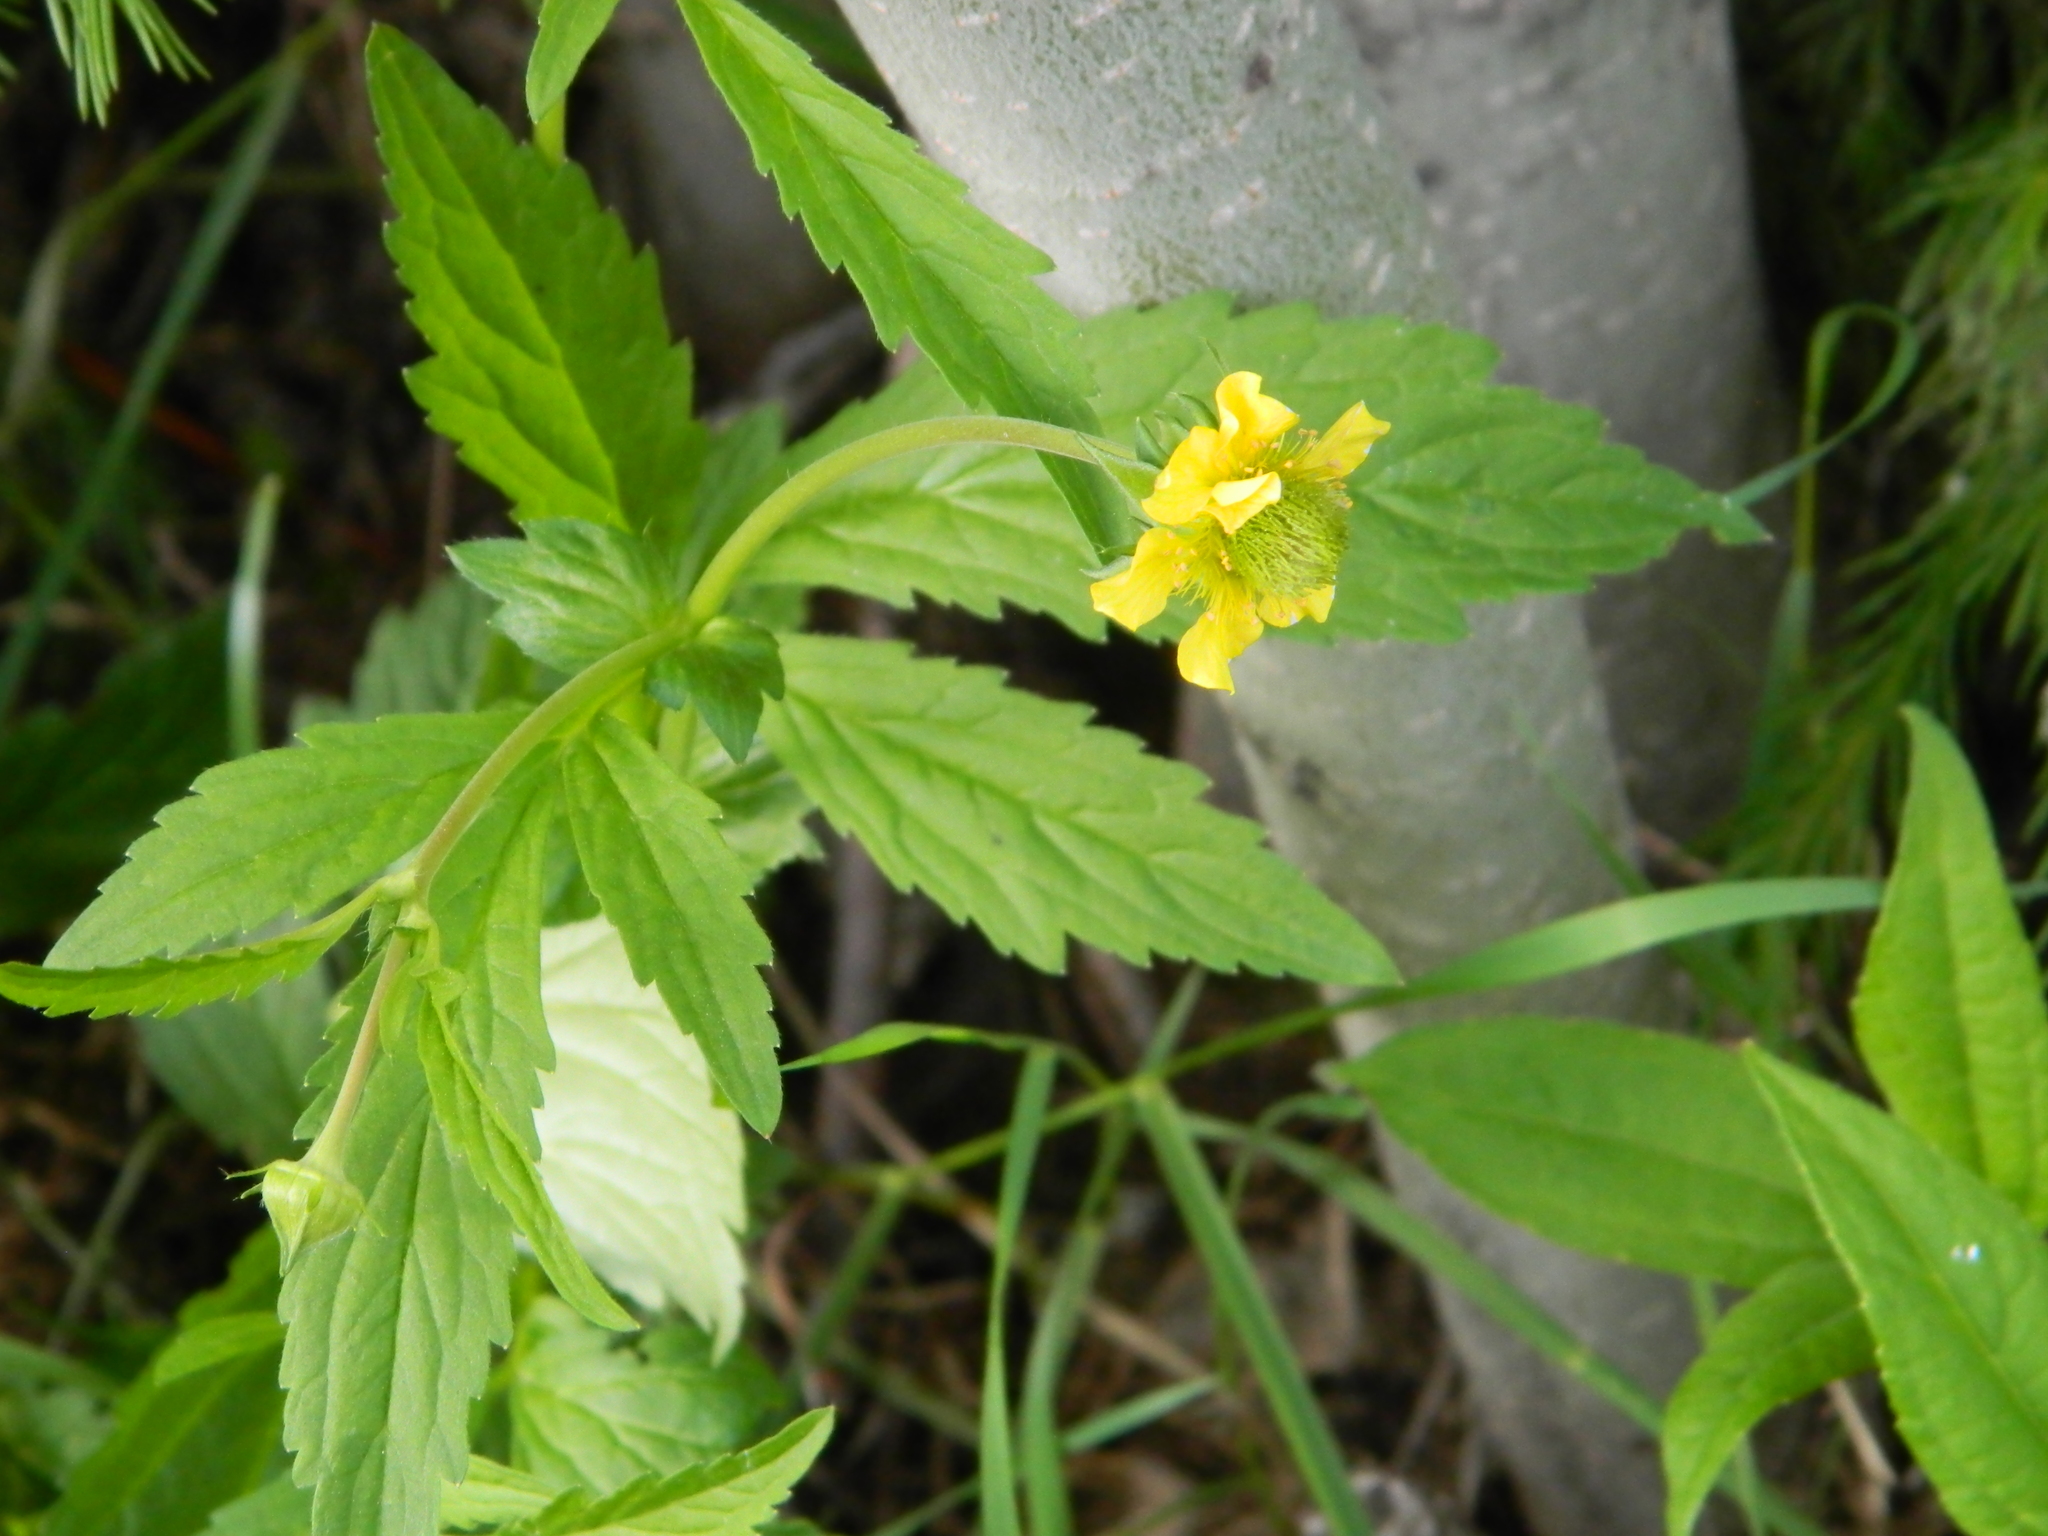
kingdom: Plantae
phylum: Tracheophyta
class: Magnoliopsida
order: Rosales
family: Rosaceae
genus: Geum
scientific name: Geum aleppicum
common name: Yellow avens
